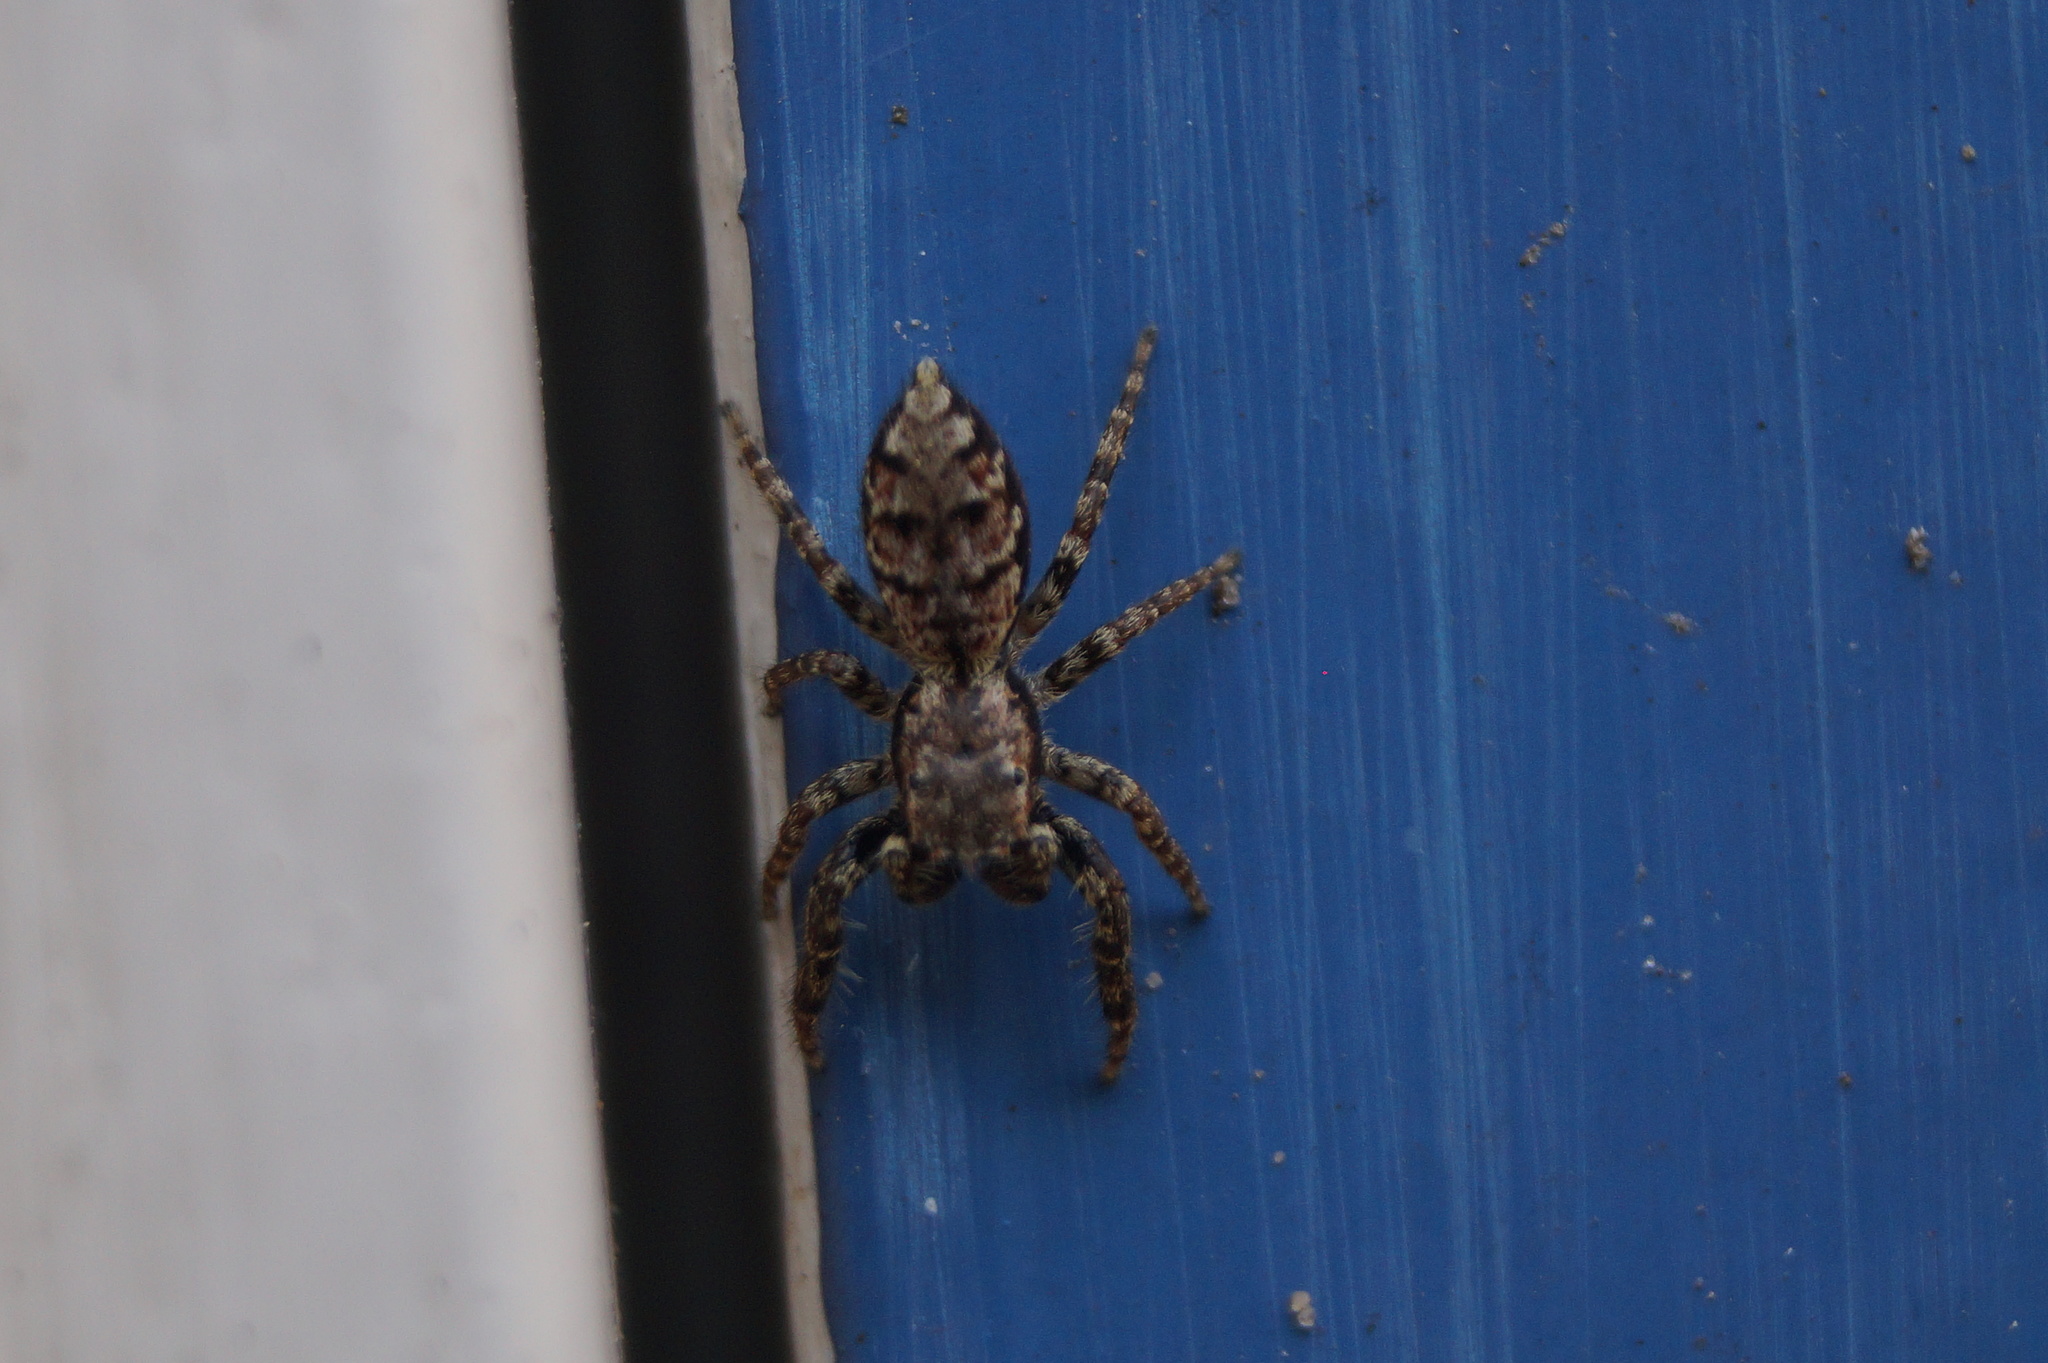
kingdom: Animalia
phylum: Arthropoda
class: Arachnida
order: Araneae
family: Salticidae
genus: Marpissa
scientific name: Marpissa muscosa
